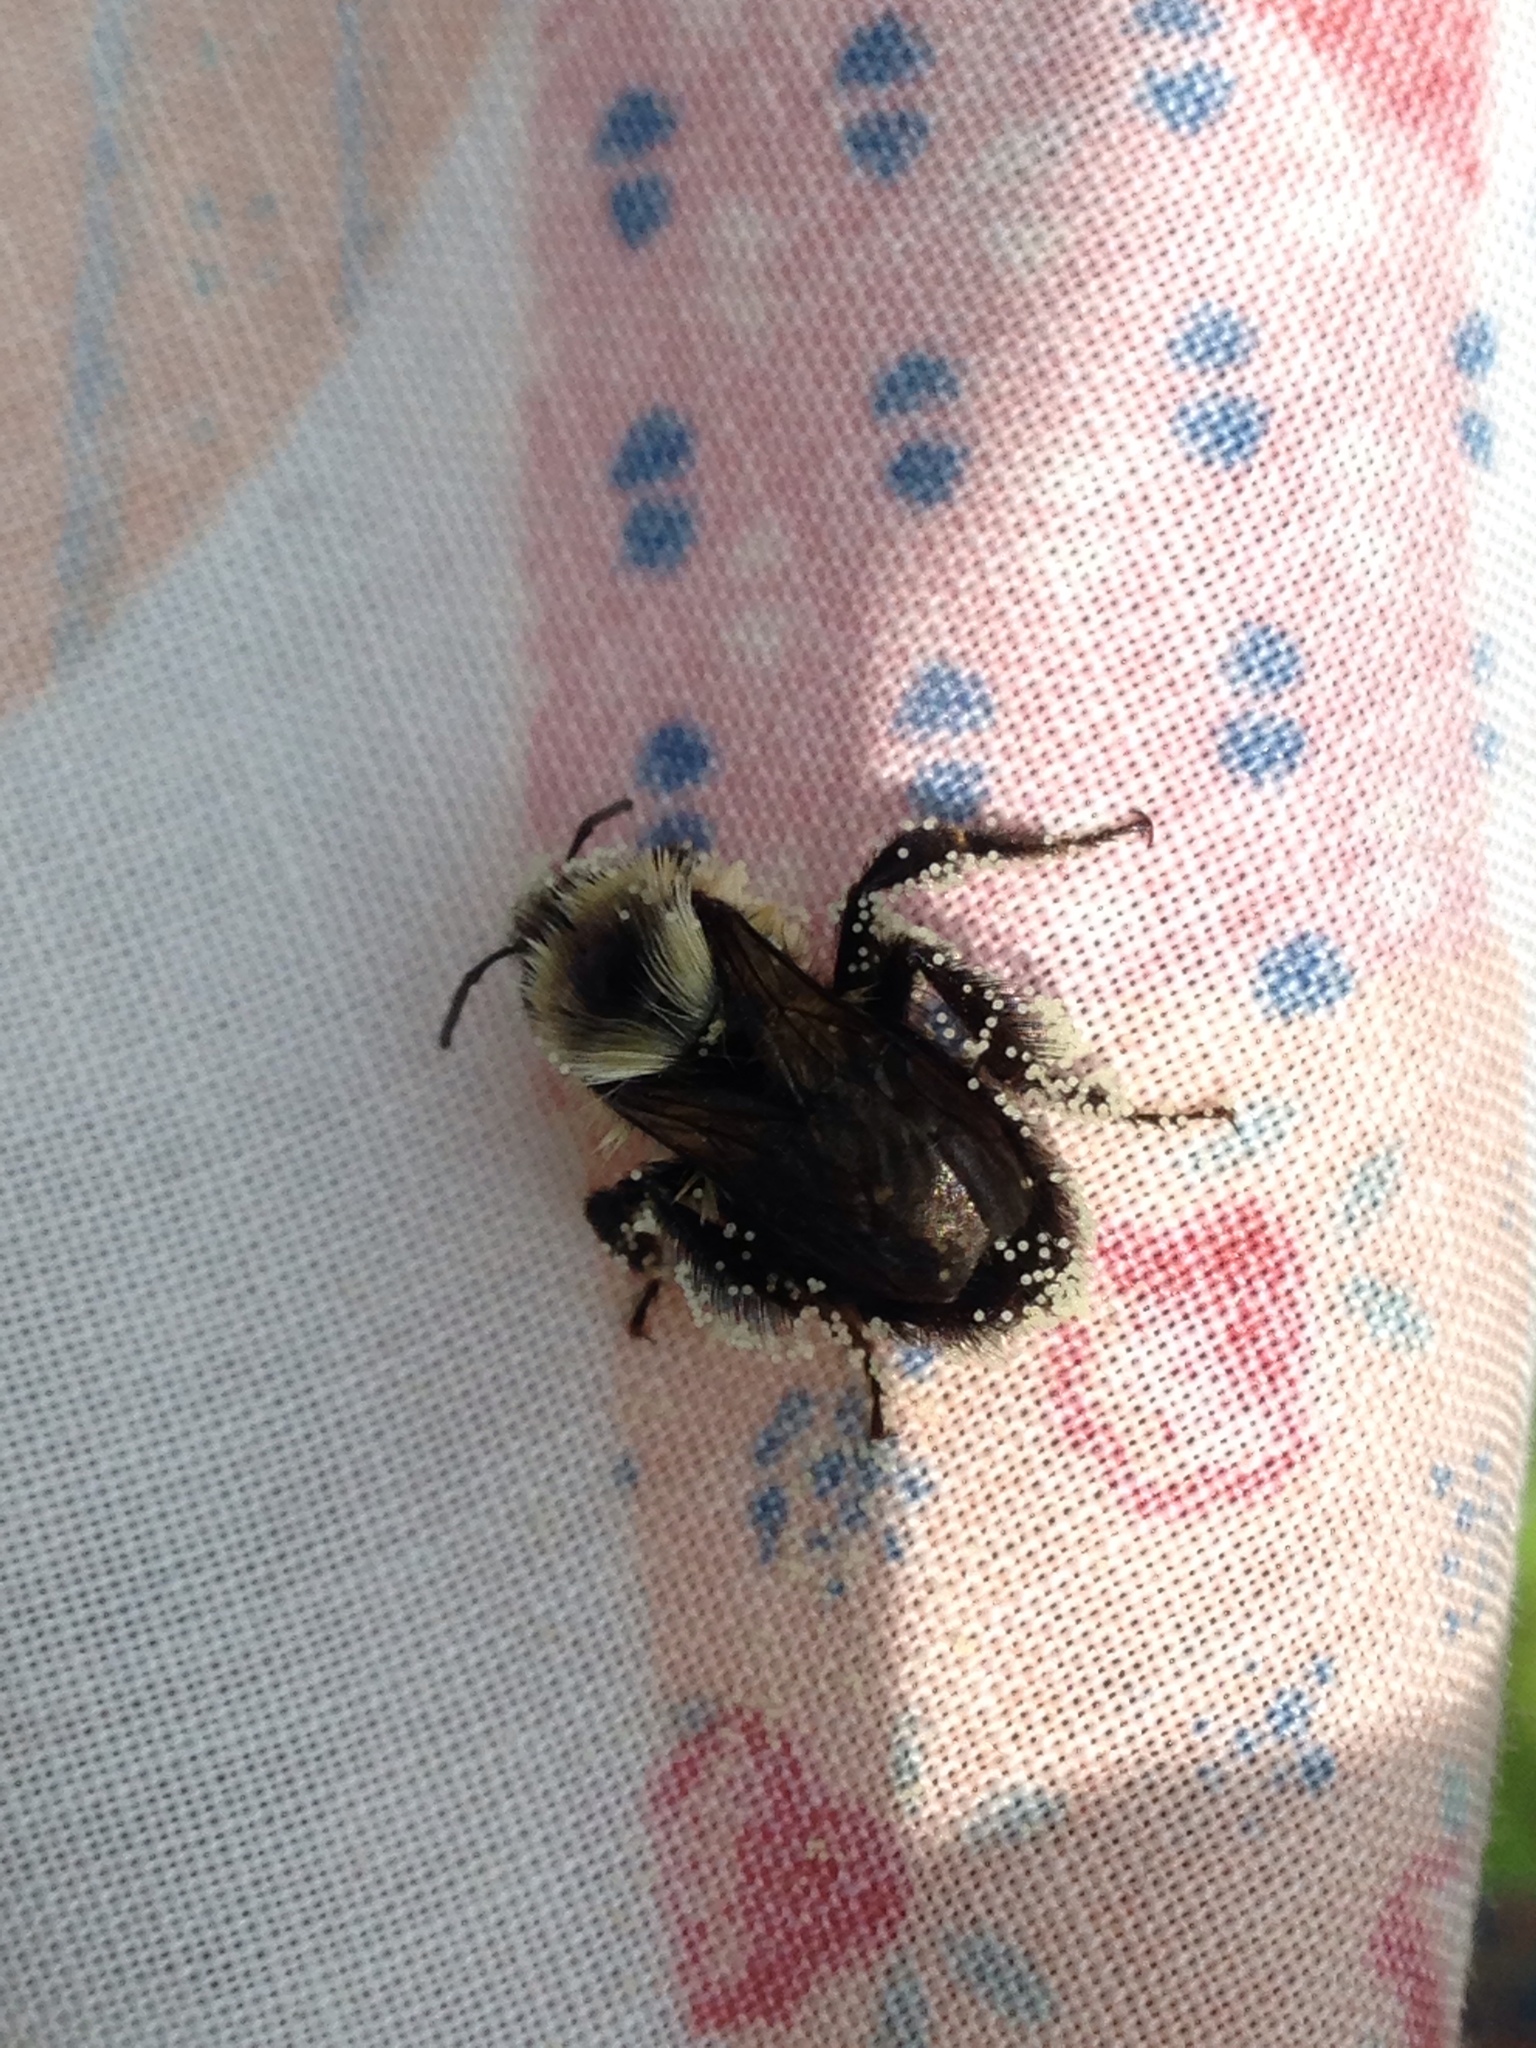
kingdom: Animalia
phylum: Arthropoda
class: Insecta
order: Hymenoptera
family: Apidae
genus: Bombus
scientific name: Bombus impatiens
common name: Common eastern bumble bee
